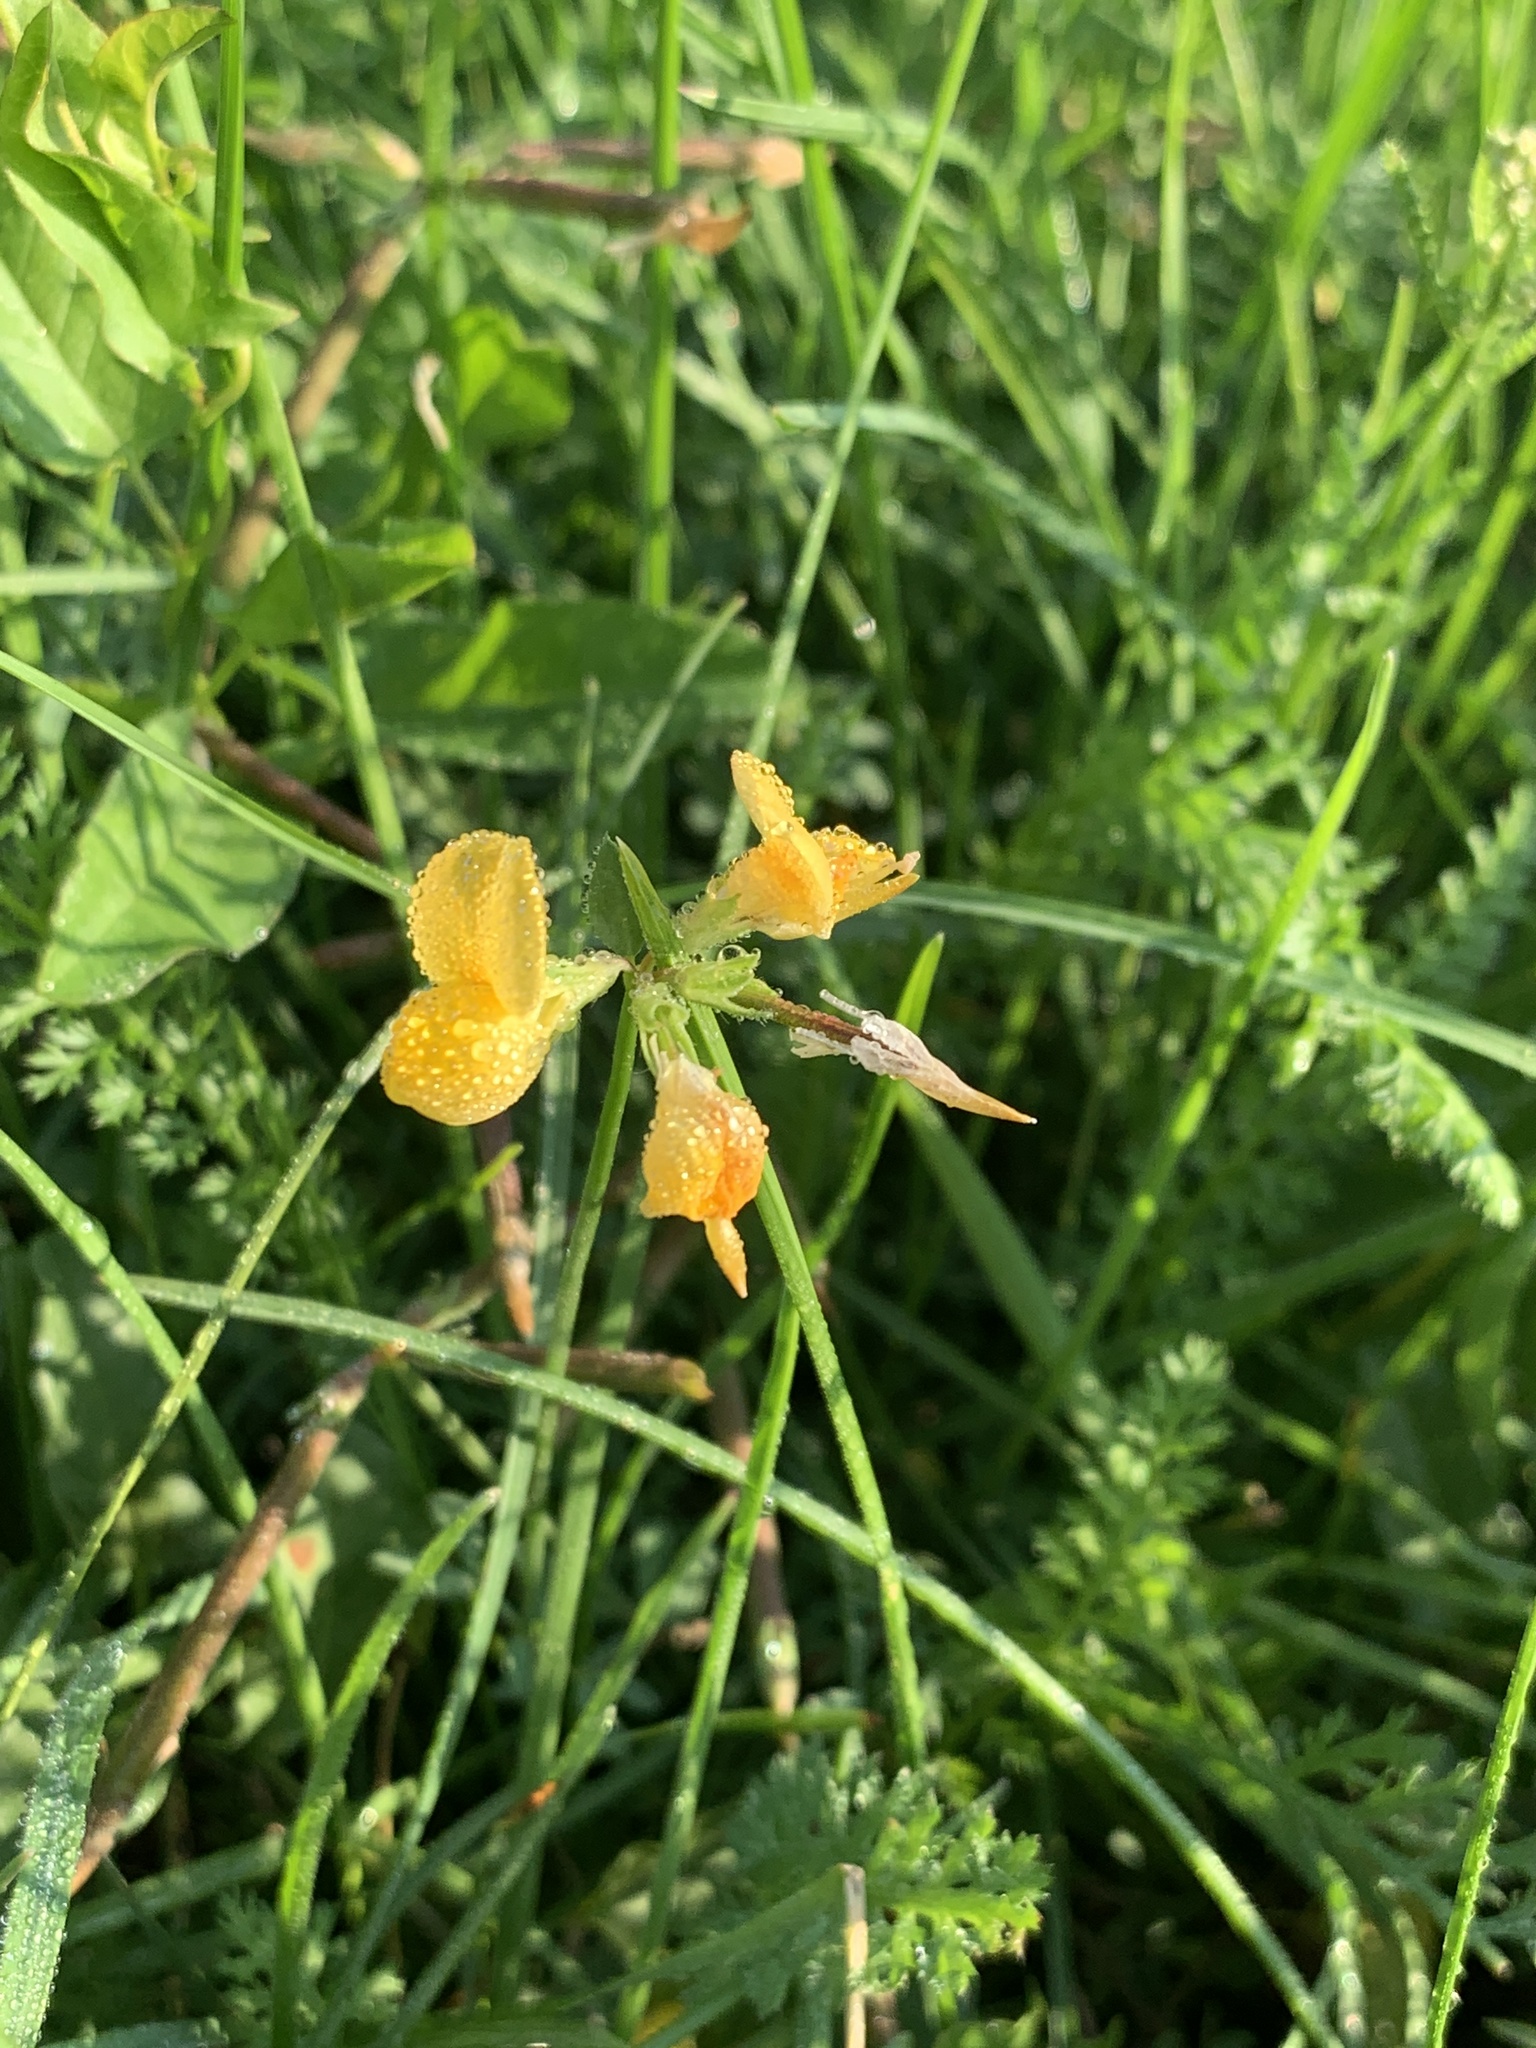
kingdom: Plantae
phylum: Tracheophyta
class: Magnoliopsida
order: Fabales
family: Fabaceae
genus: Lotus
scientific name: Lotus corniculatus
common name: Common bird's-foot-trefoil
